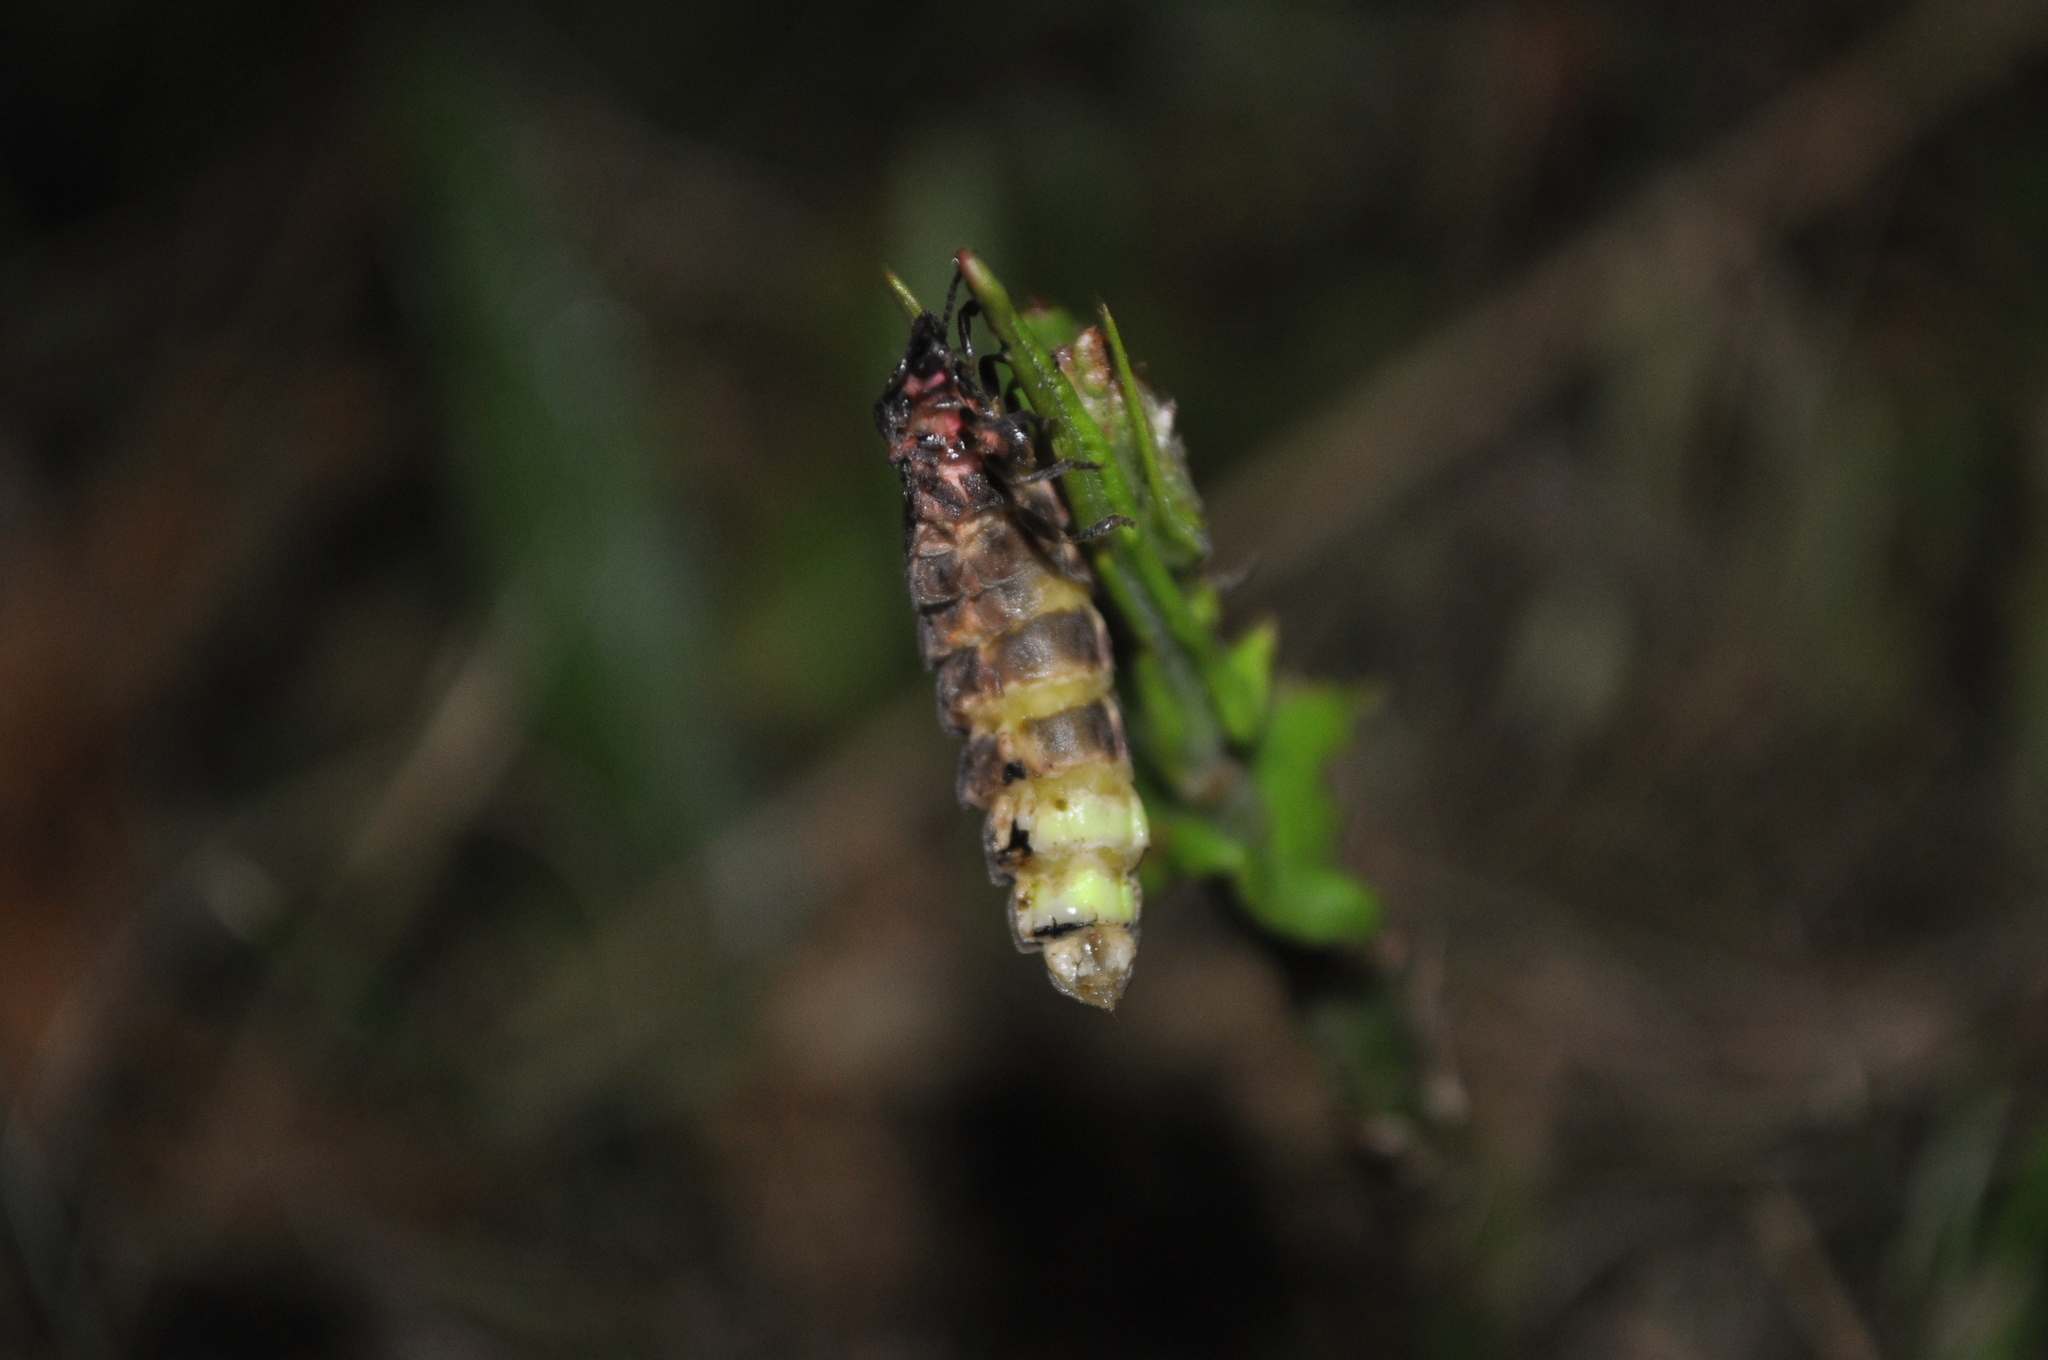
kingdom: Animalia
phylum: Arthropoda
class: Insecta
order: Coleoptera
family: Lampyridae
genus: Lampyris
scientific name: Lampyris noctiluca
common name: Glow-worm
